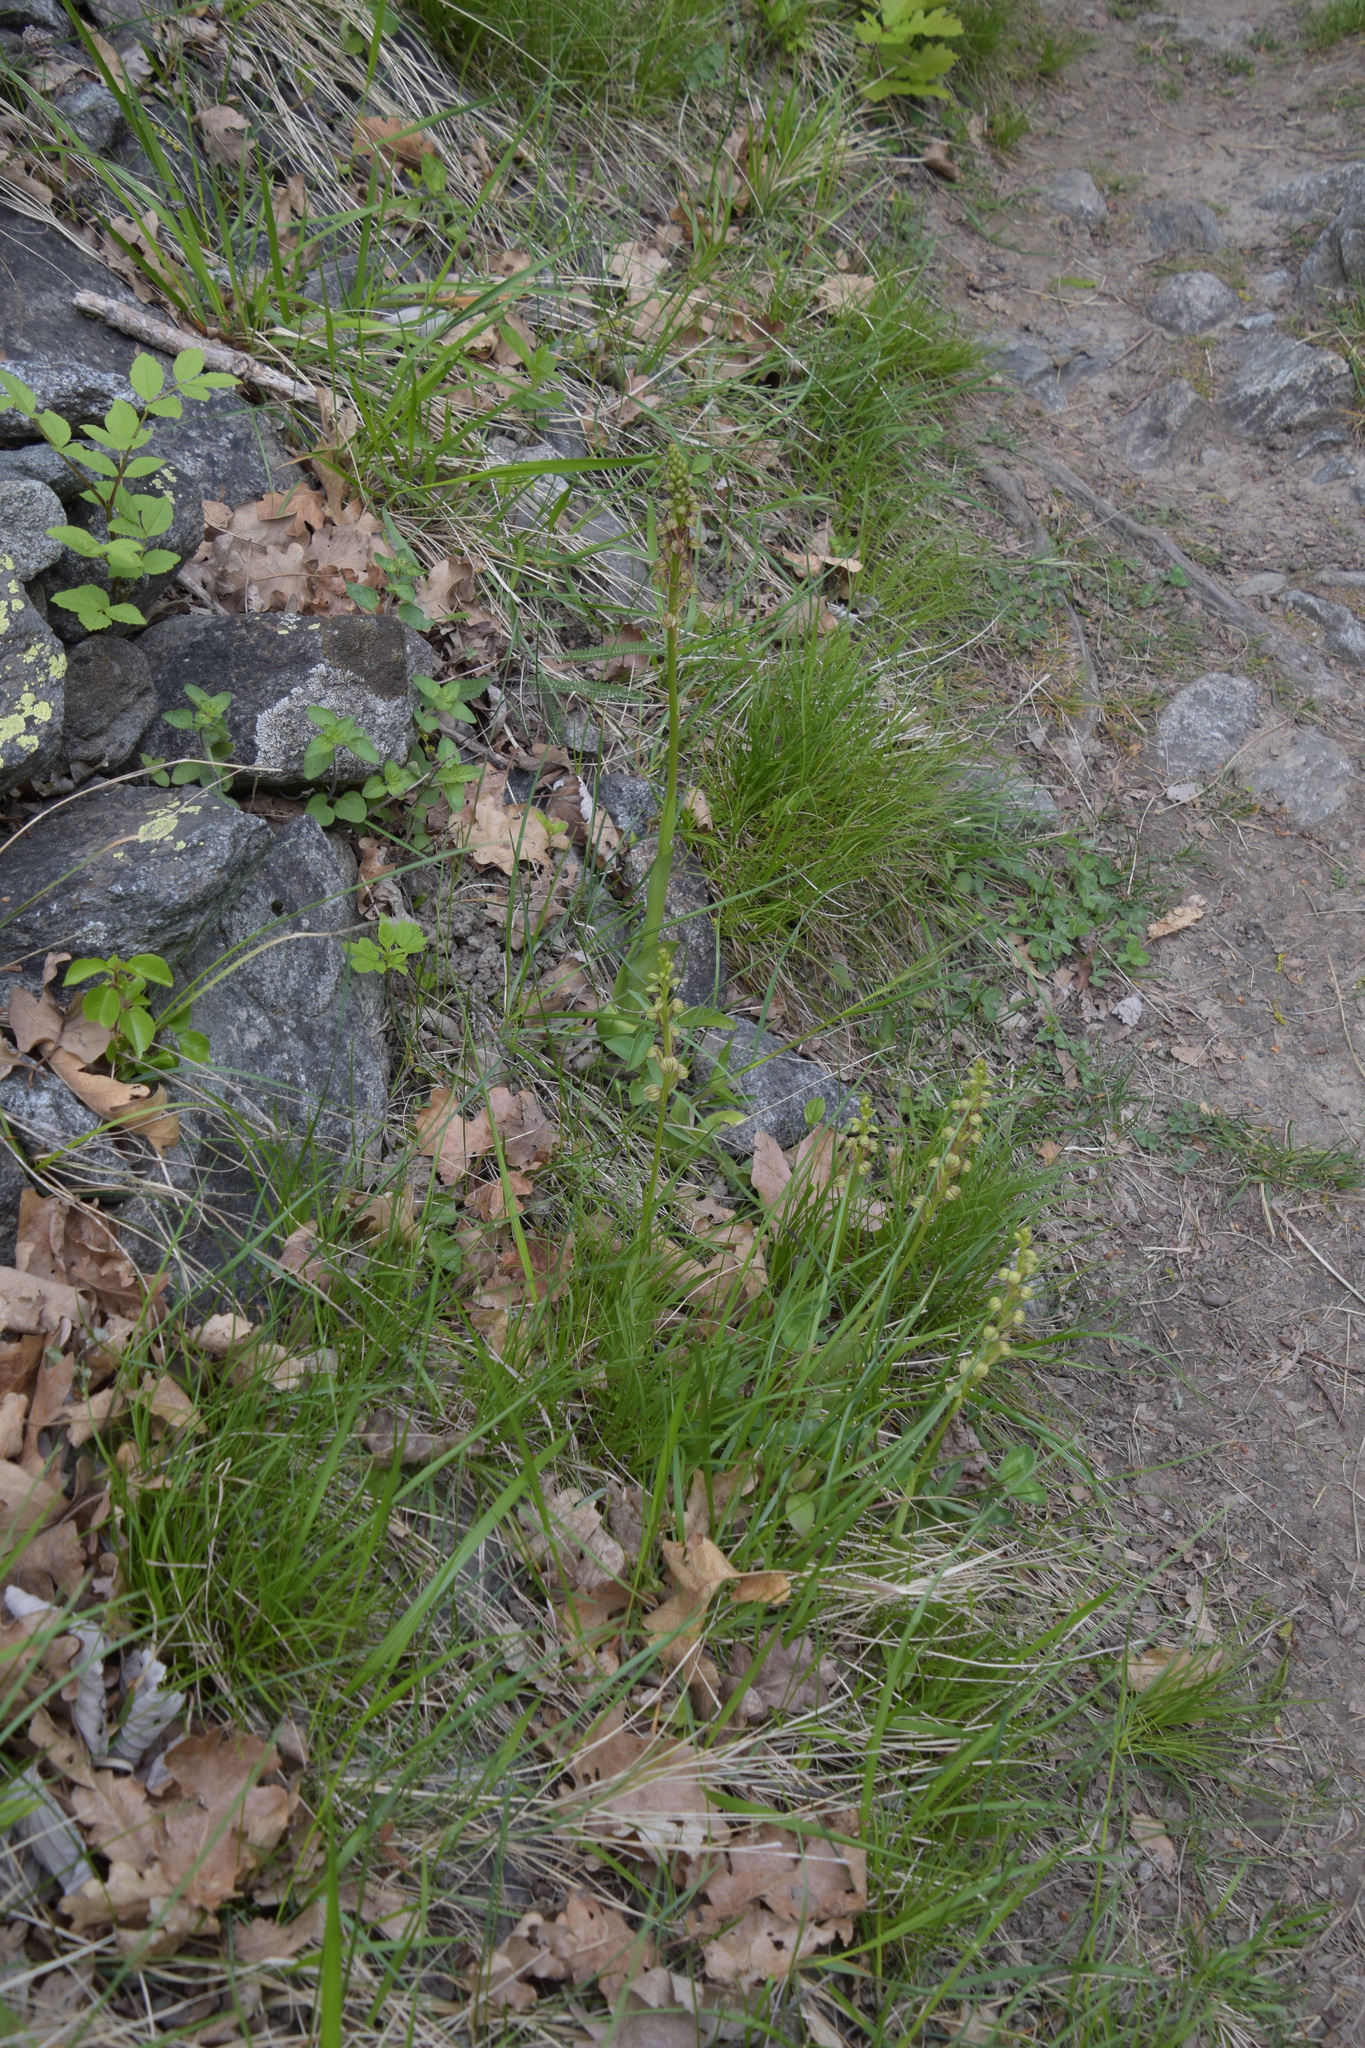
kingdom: Plantae
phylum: Tracheophyta
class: Liliopsida
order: Asparagales
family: Orchidaceae
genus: Orchis
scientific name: Orchis anthropophora
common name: Man orchid
